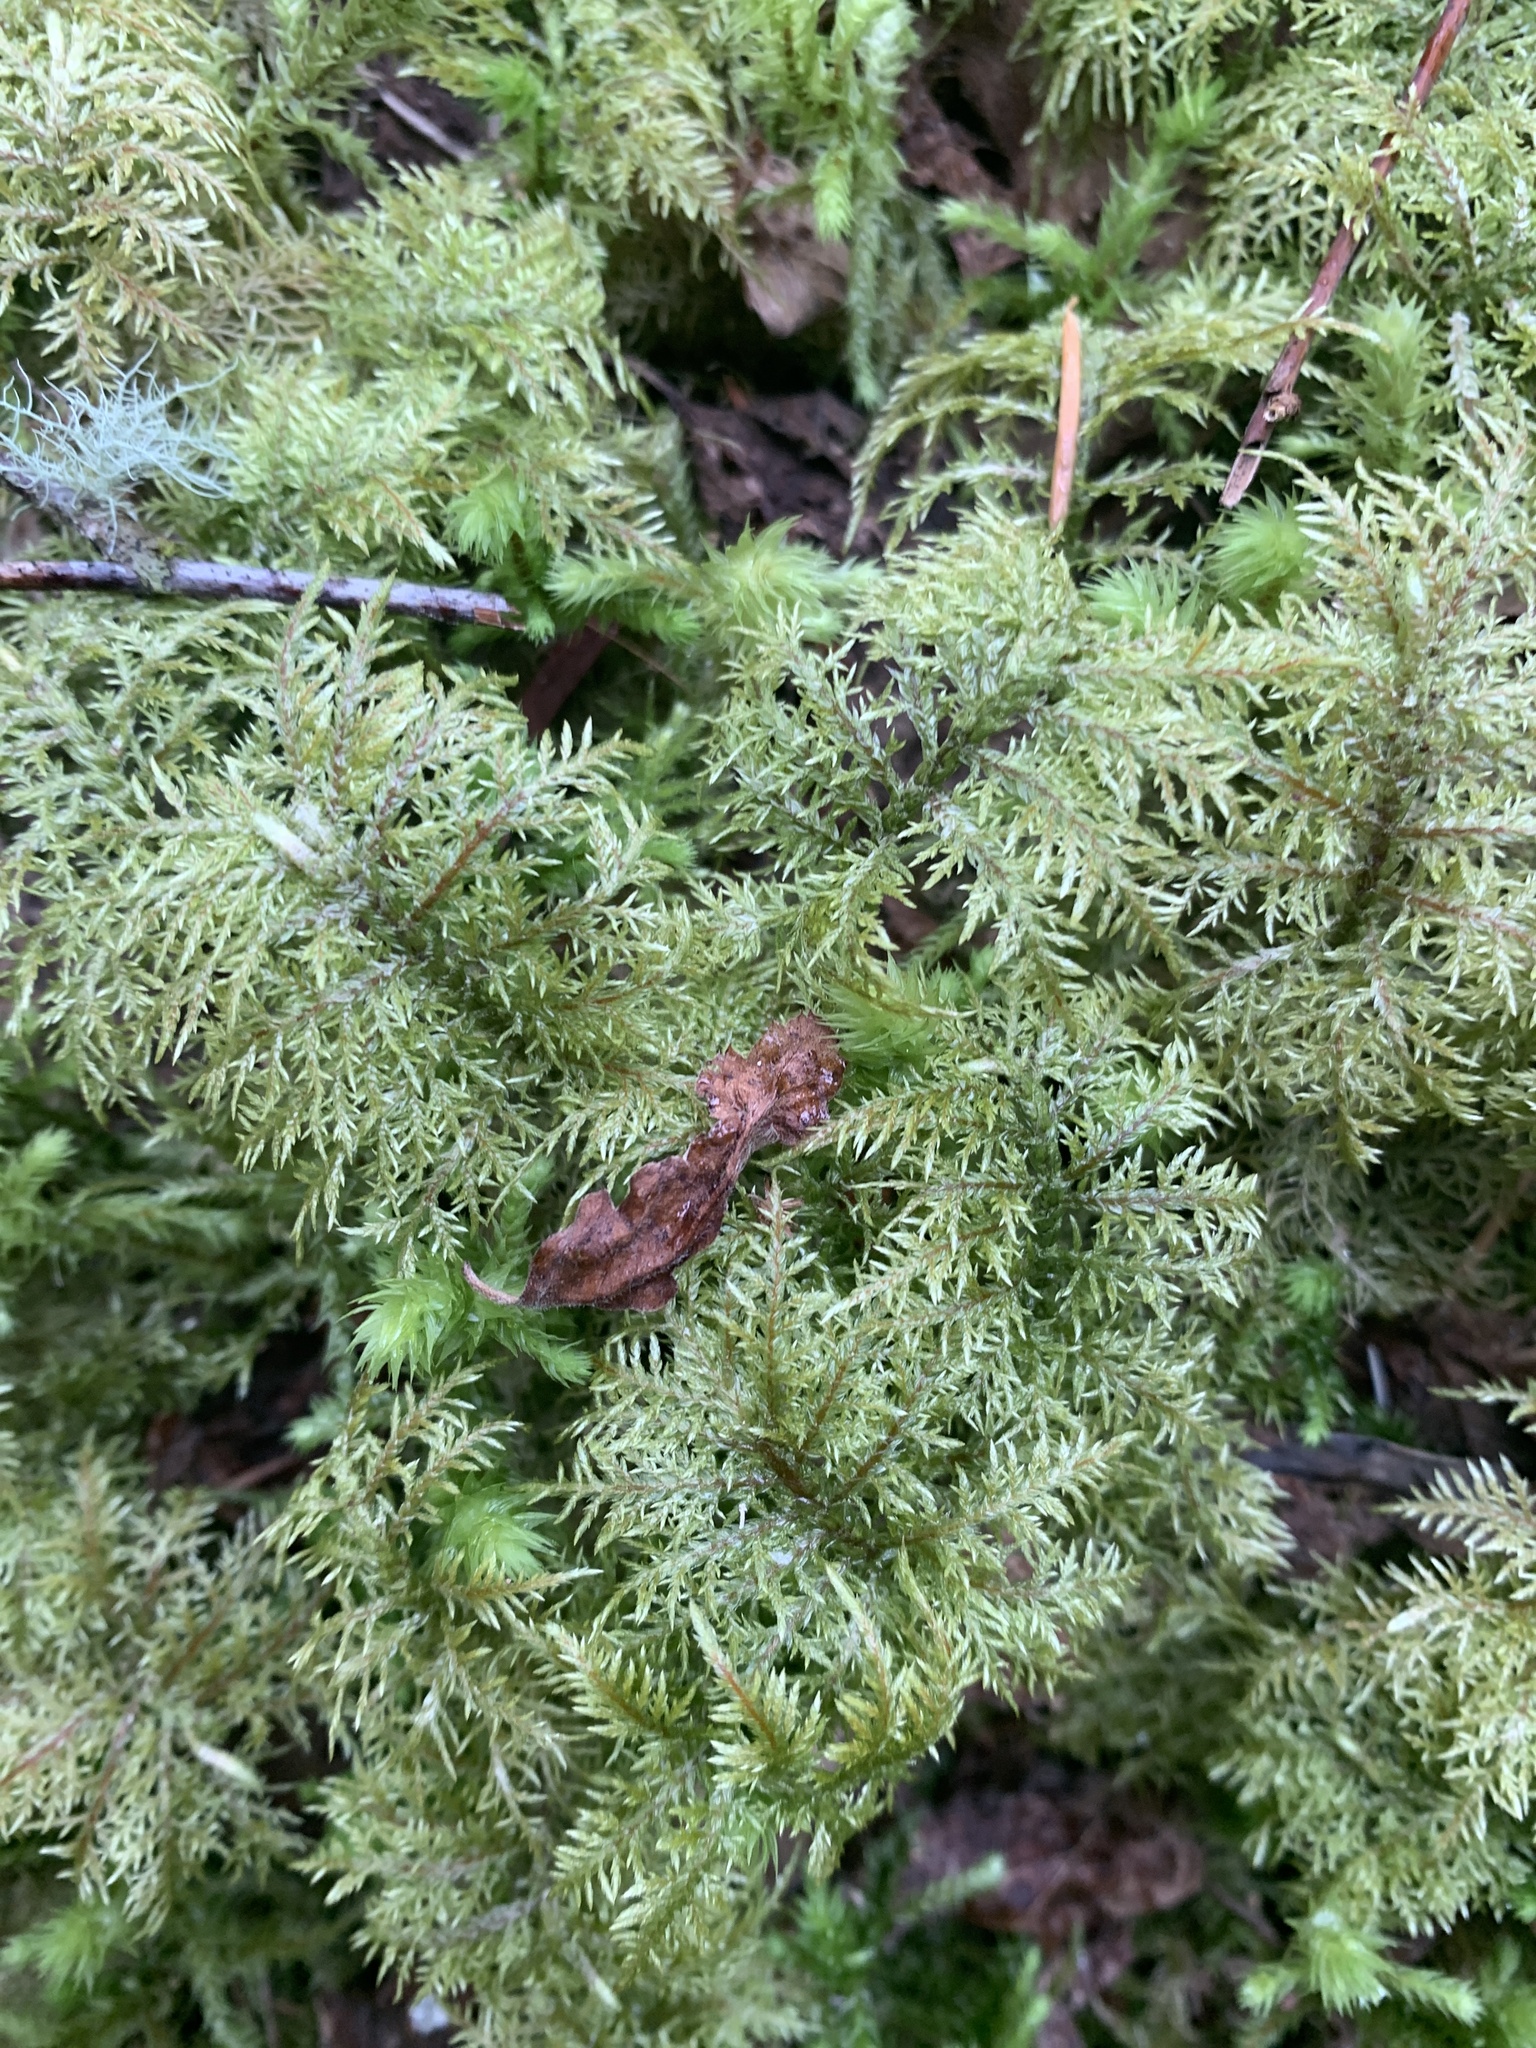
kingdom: Plantae
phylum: Bryophyta
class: Bryopsida
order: Hypnales
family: Hylocomiaceae
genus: Hylocomium
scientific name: Hylocomium splendens
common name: Stairstep moss
